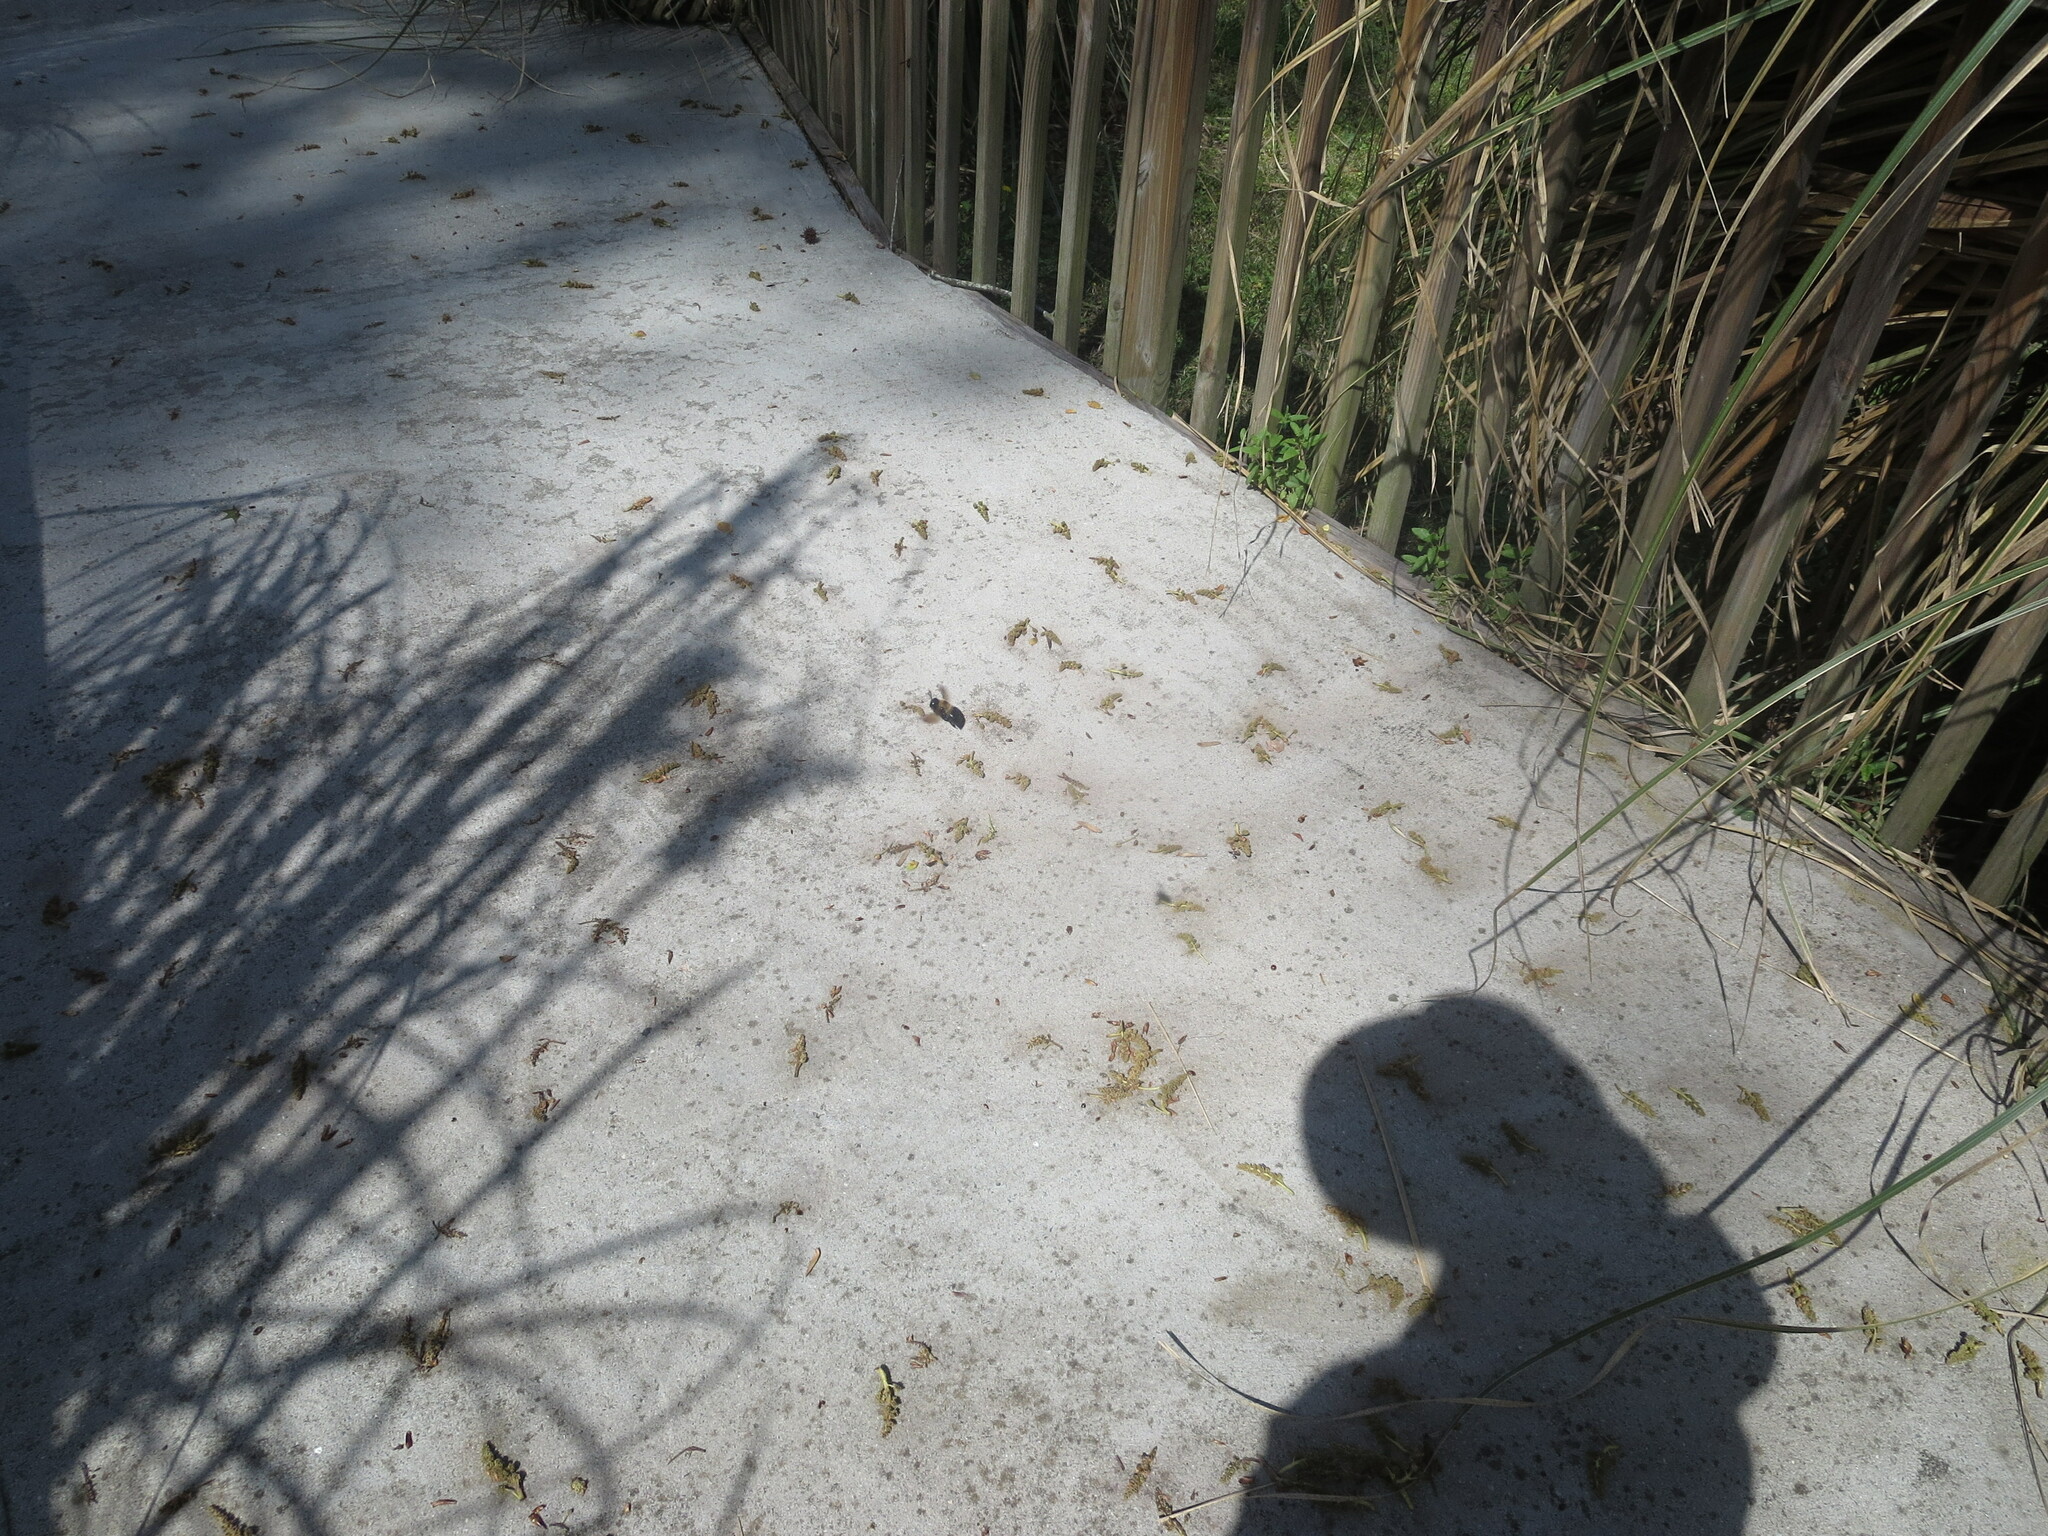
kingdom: Animalia
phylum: Arthropoda
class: Insecta
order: Hymenoptera
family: Apidae
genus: Xylocopa
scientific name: Xylocopa virginica
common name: Carpenter bee
